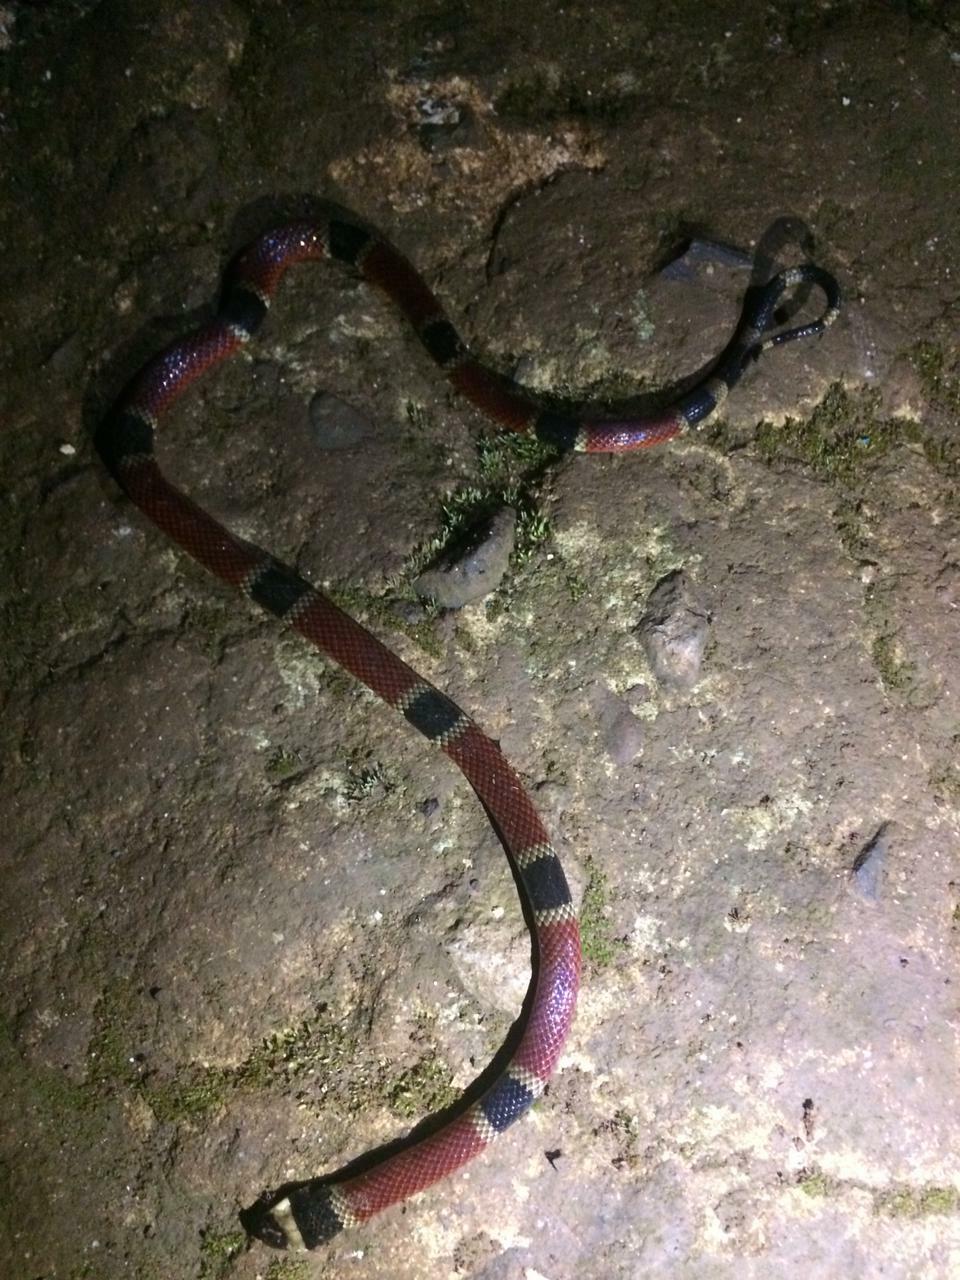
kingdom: Animalia
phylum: Chordata
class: Squamata
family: Elapidae
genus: Micrurus
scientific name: Micrurus nigrocinctus
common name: Babaspul [babaspul]
